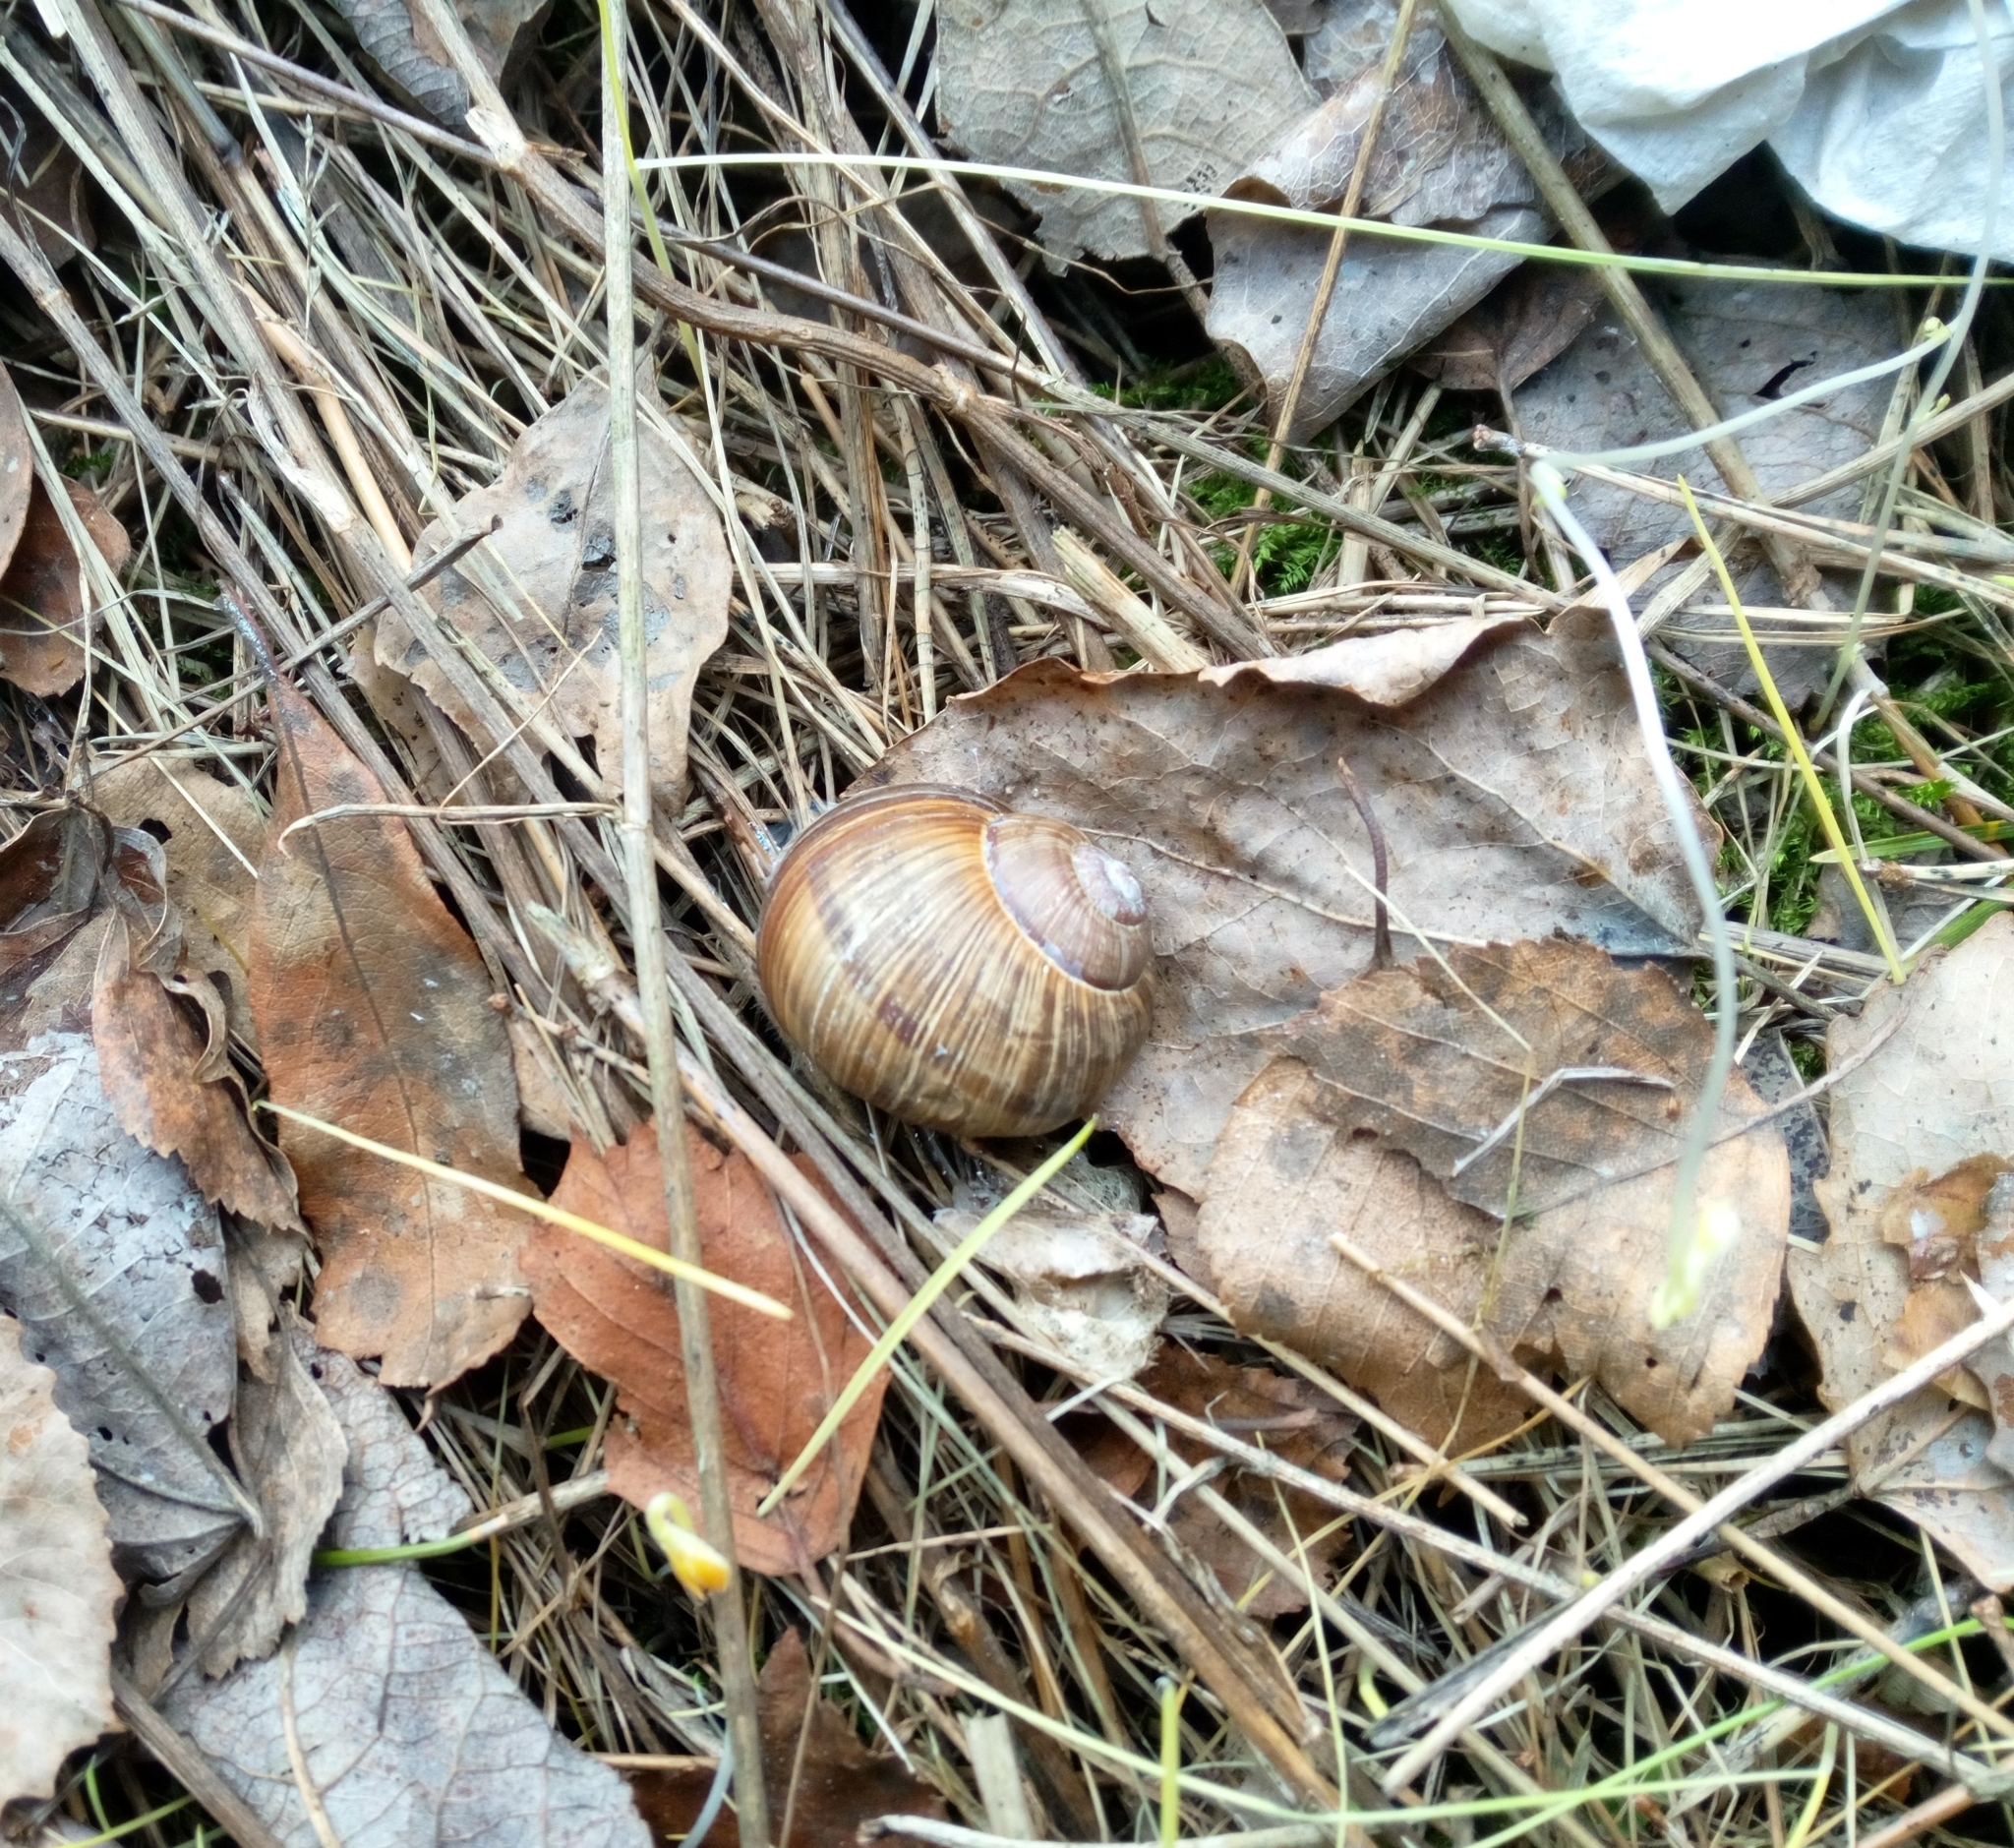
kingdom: Animalia
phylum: Mollusca
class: Gastropoda
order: Stylommatophora
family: Helicidae
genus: Helix
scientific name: Helix pomatia
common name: Roman snail
